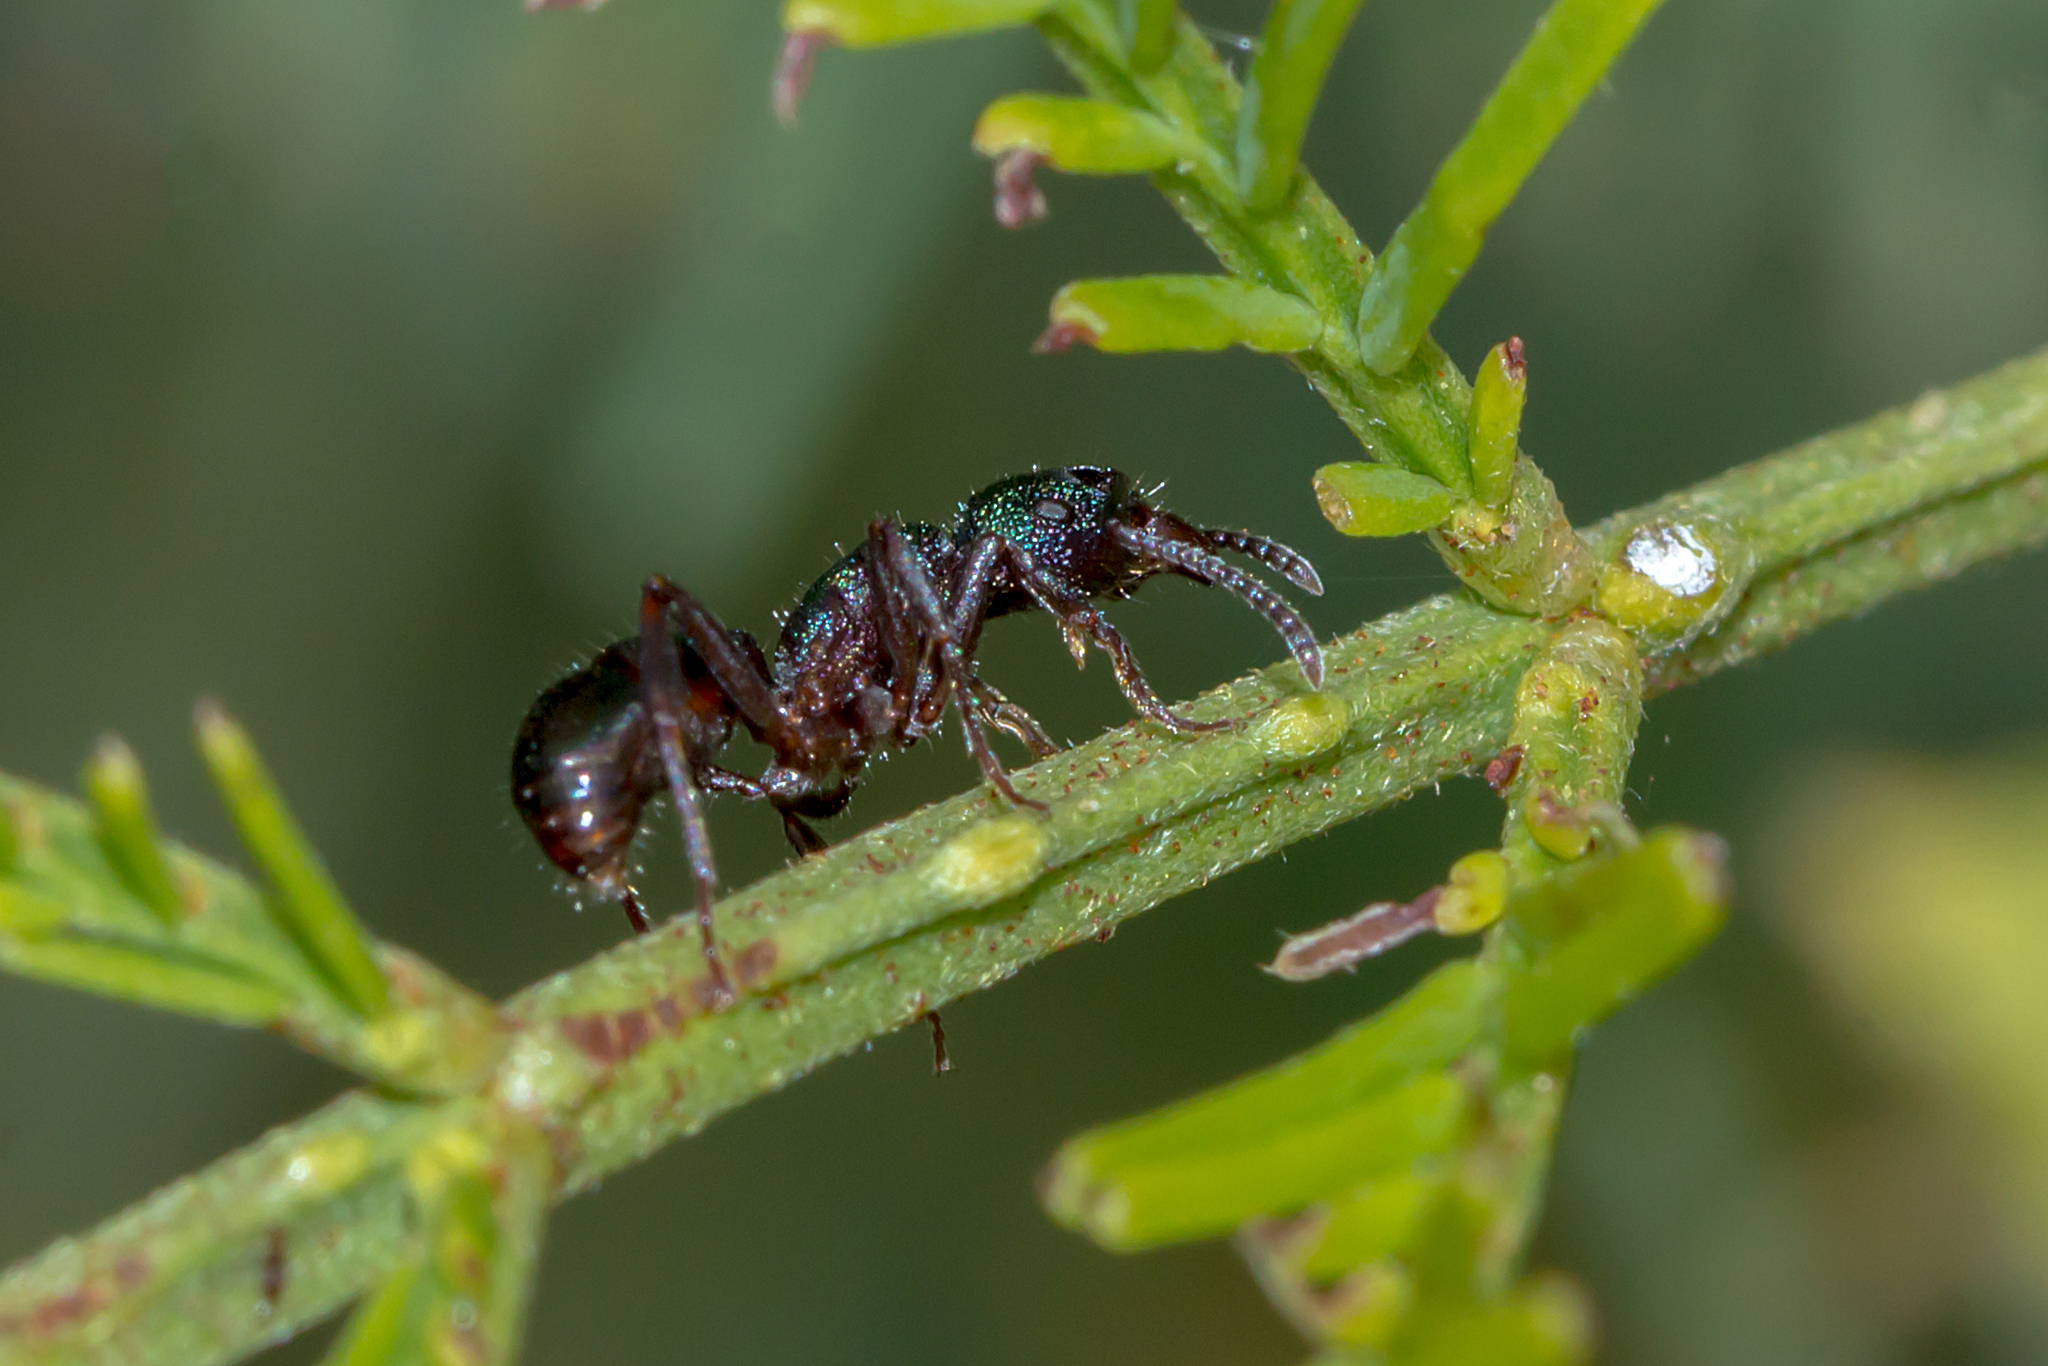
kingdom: Animalia
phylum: Arthropoda
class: Insecta
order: Hymenoptera
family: Formicidae
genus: Rhytidoponera
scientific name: Rhytidoponera metallica
